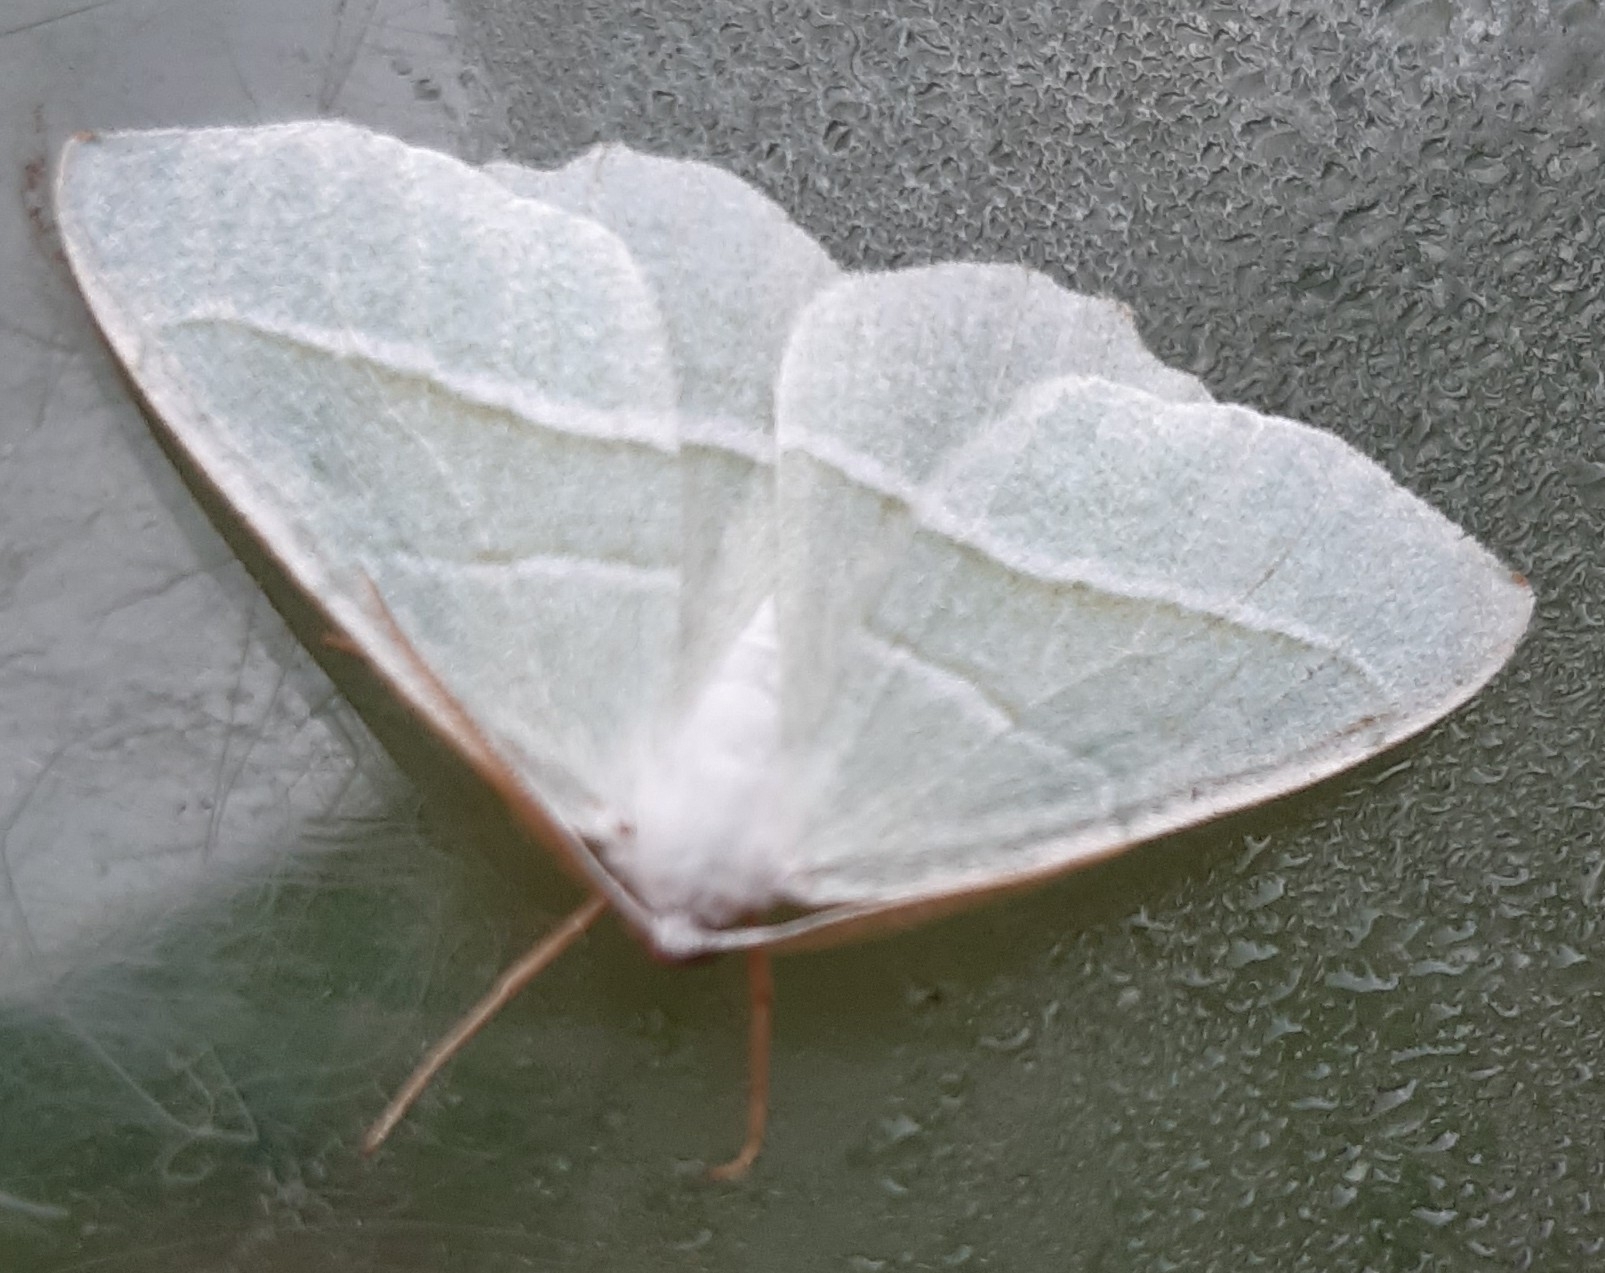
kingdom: Animalia
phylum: Arthropoda
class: Insecta
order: Lepidoptera
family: Geometridae
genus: Campaea
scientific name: Campaea margaritaria
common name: Light emerald
